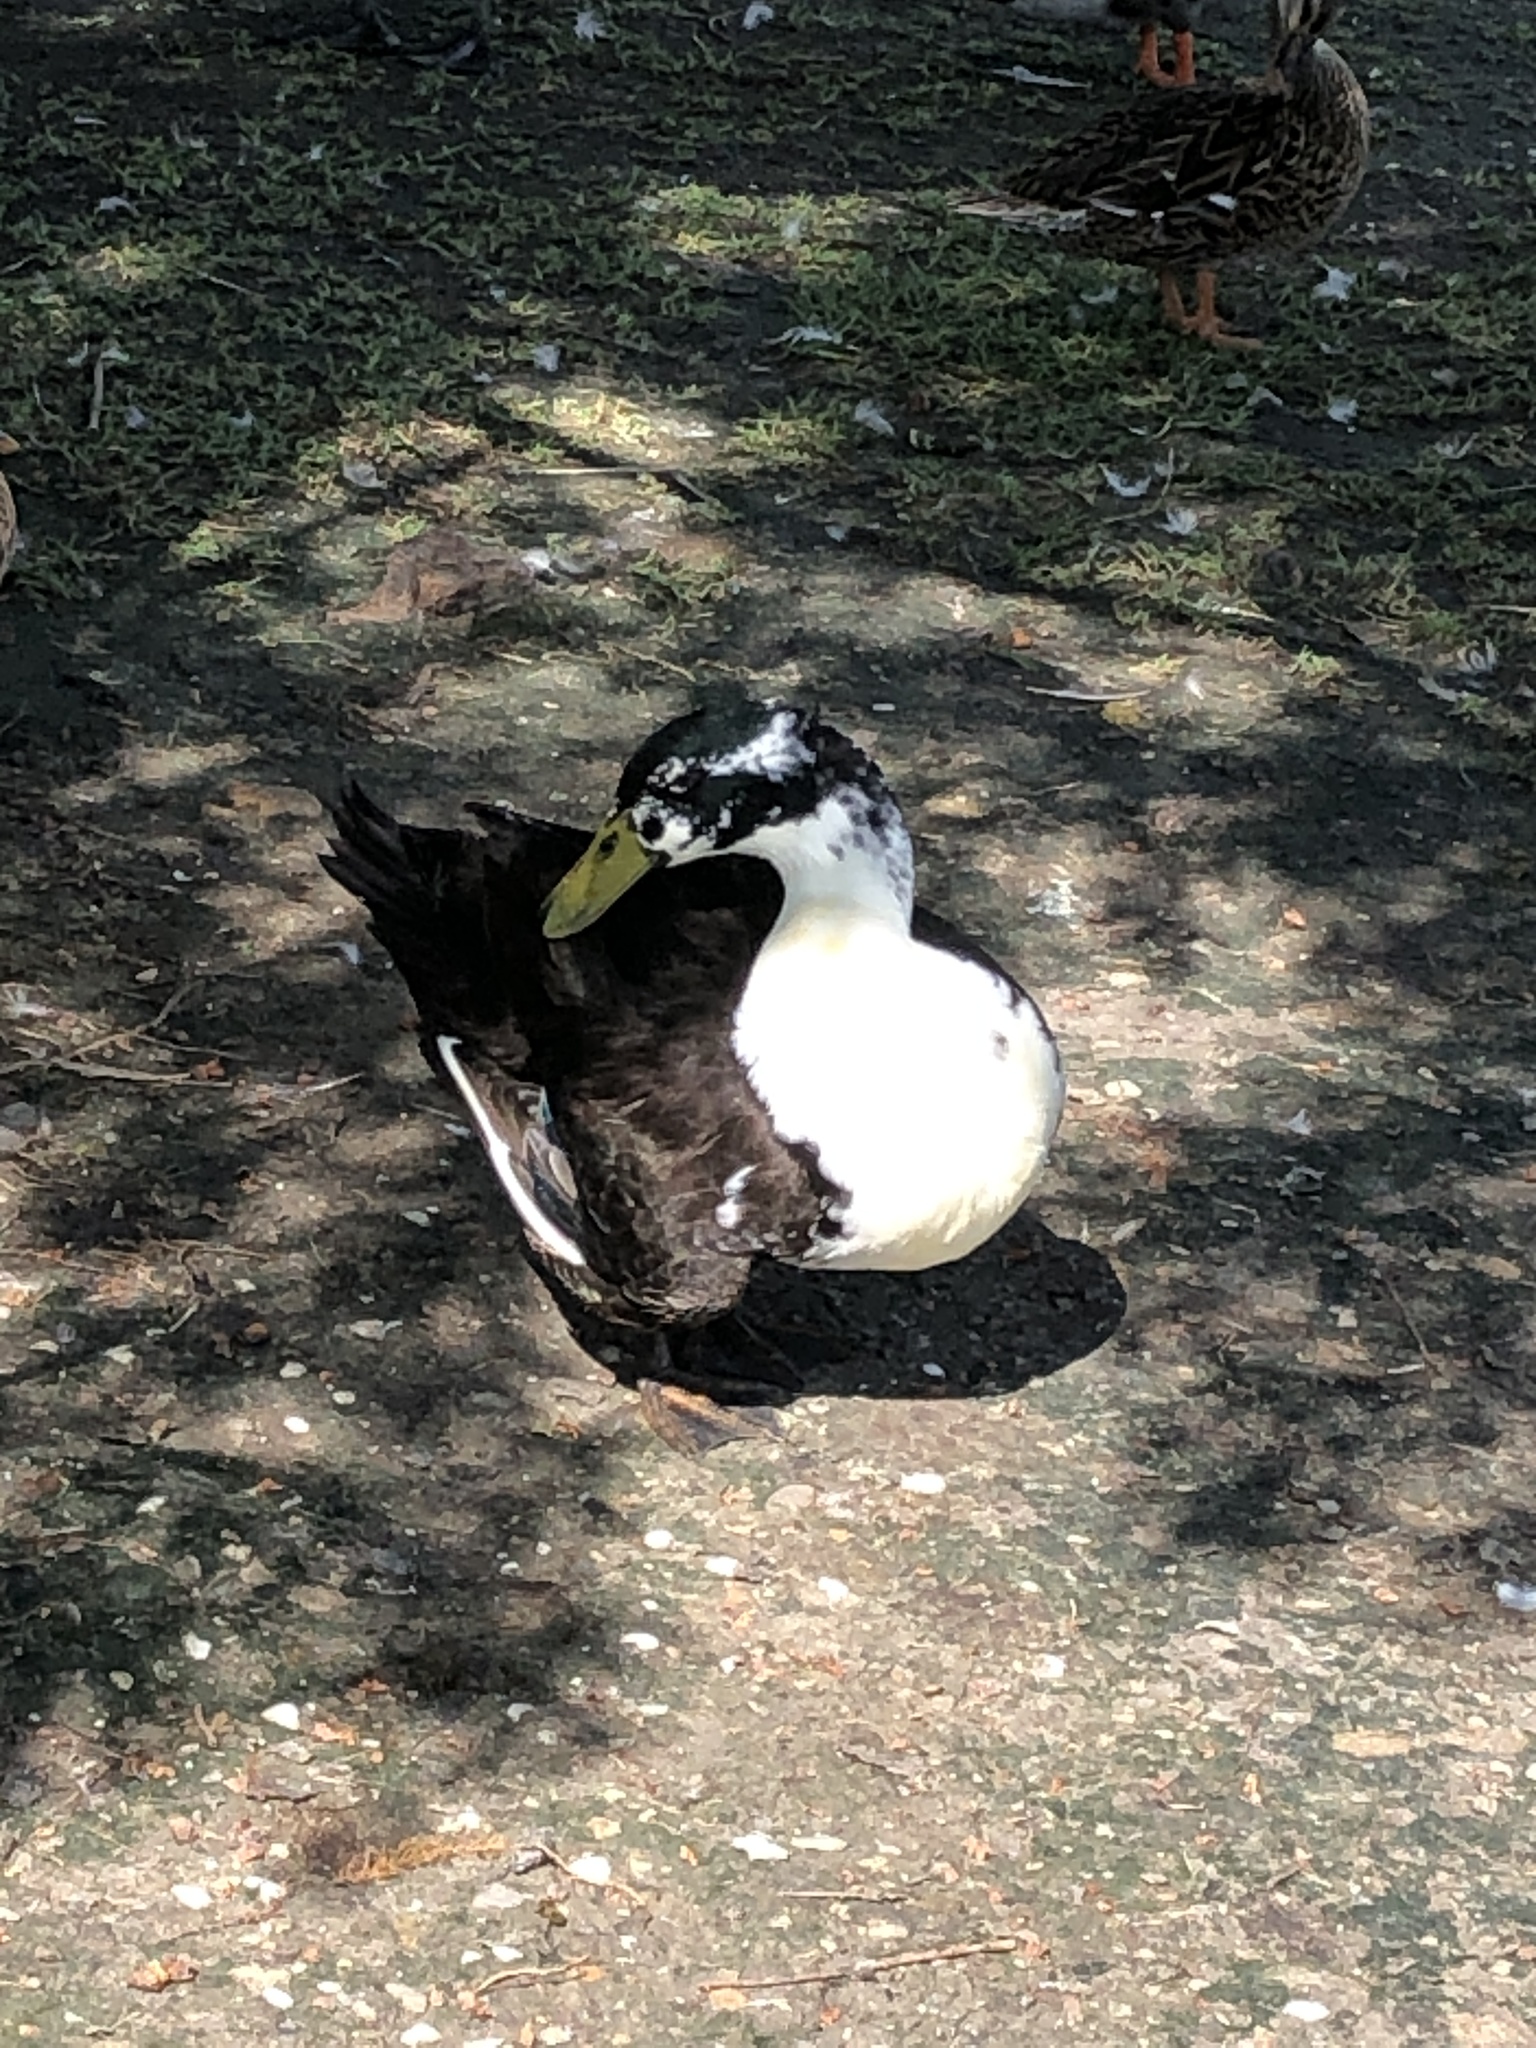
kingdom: Animalia
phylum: Chordata
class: Aves
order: Anseriformes
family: Anatidae
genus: Anas
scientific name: Anas platyrhynchos
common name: Mallard
